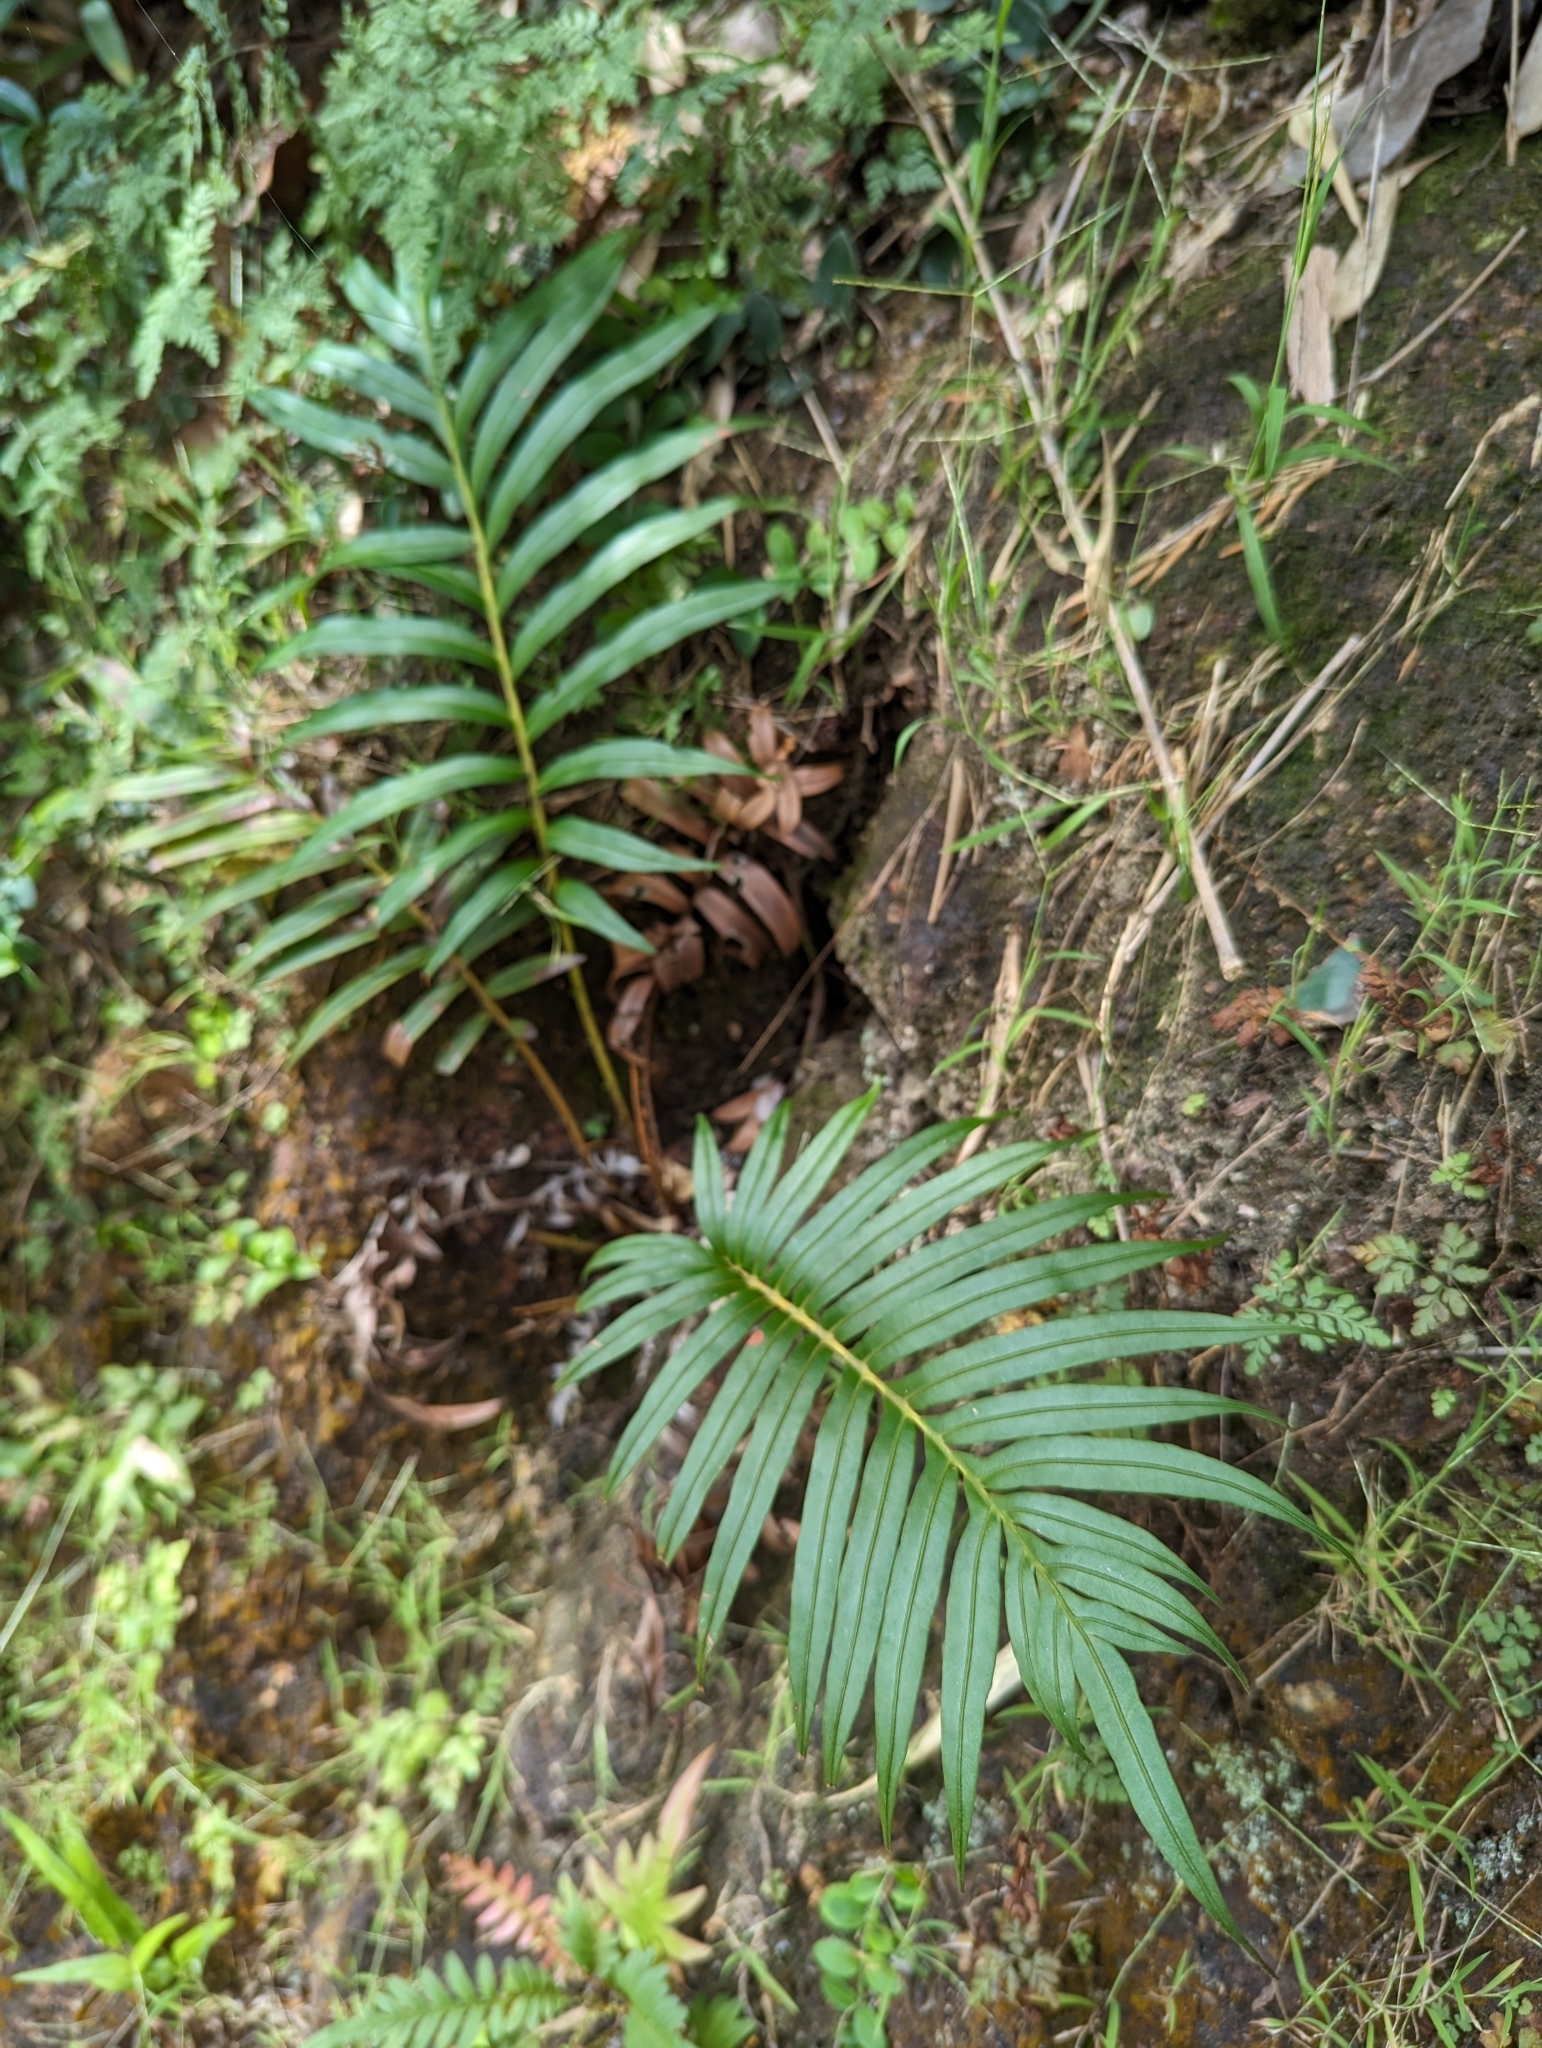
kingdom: Plantae
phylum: Tracheophyta
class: Polypodiopsida
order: Polypodiales
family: Blechnaceae
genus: Blechnopsis
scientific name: Blechnopsis orientalis
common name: Oriental blechnum
